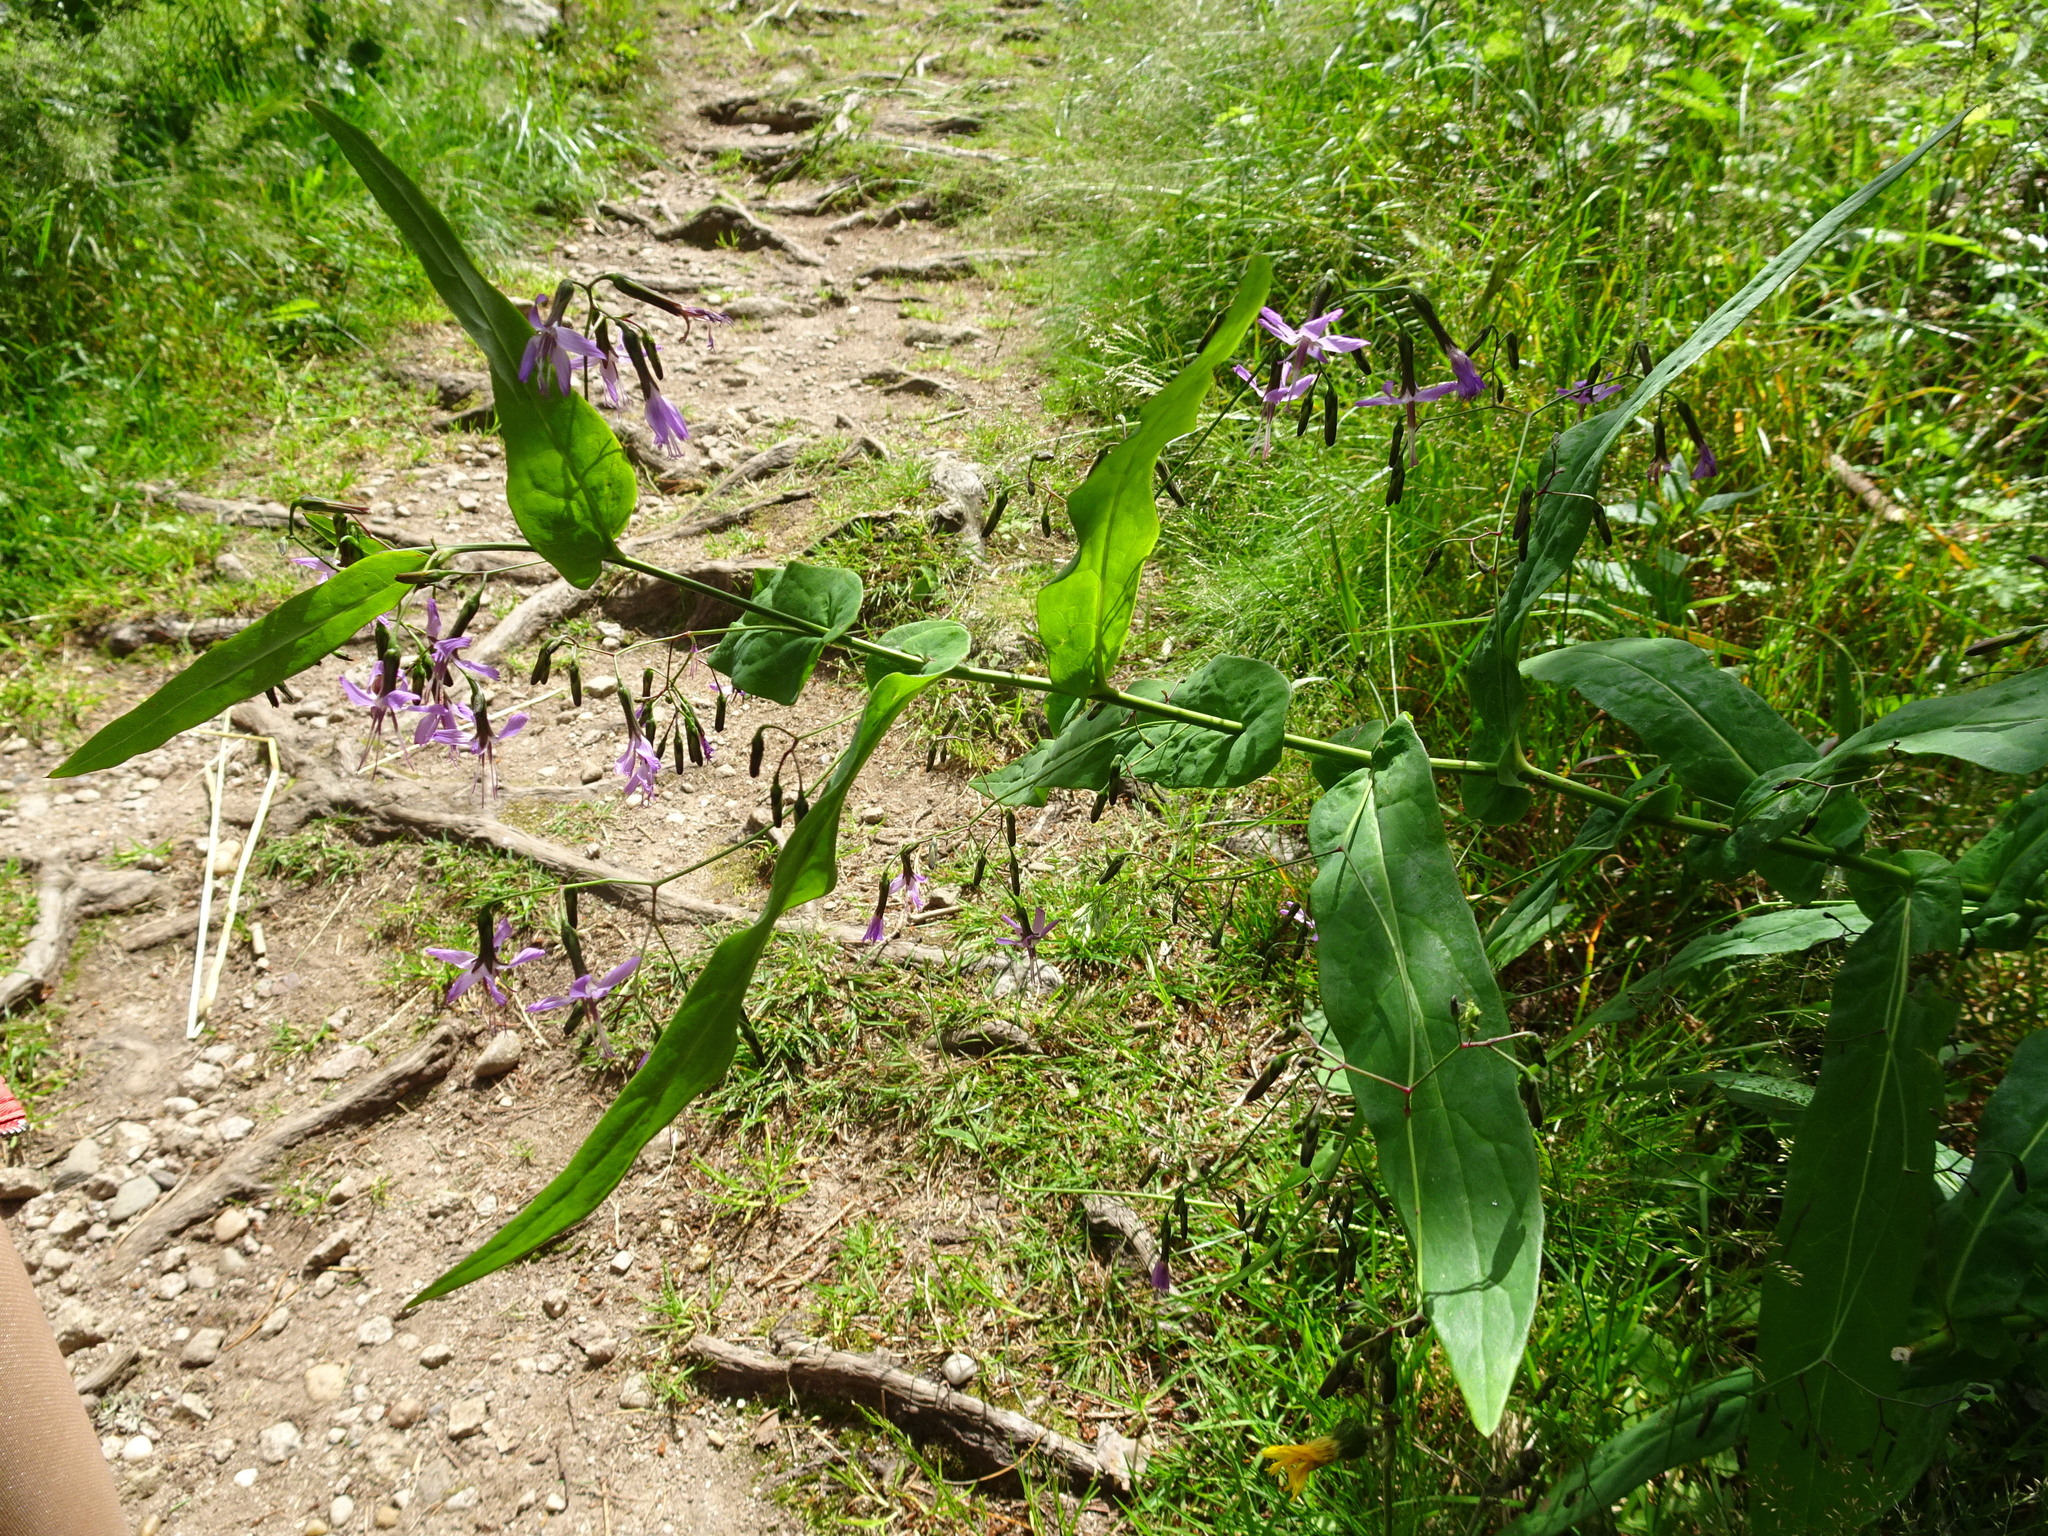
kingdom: Plantae
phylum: Tracheophyta
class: Magnoliopsida
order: Asterales
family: Asteraceae
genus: Prenanthes
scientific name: Prenanthes purpurea
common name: Purple lettuce
